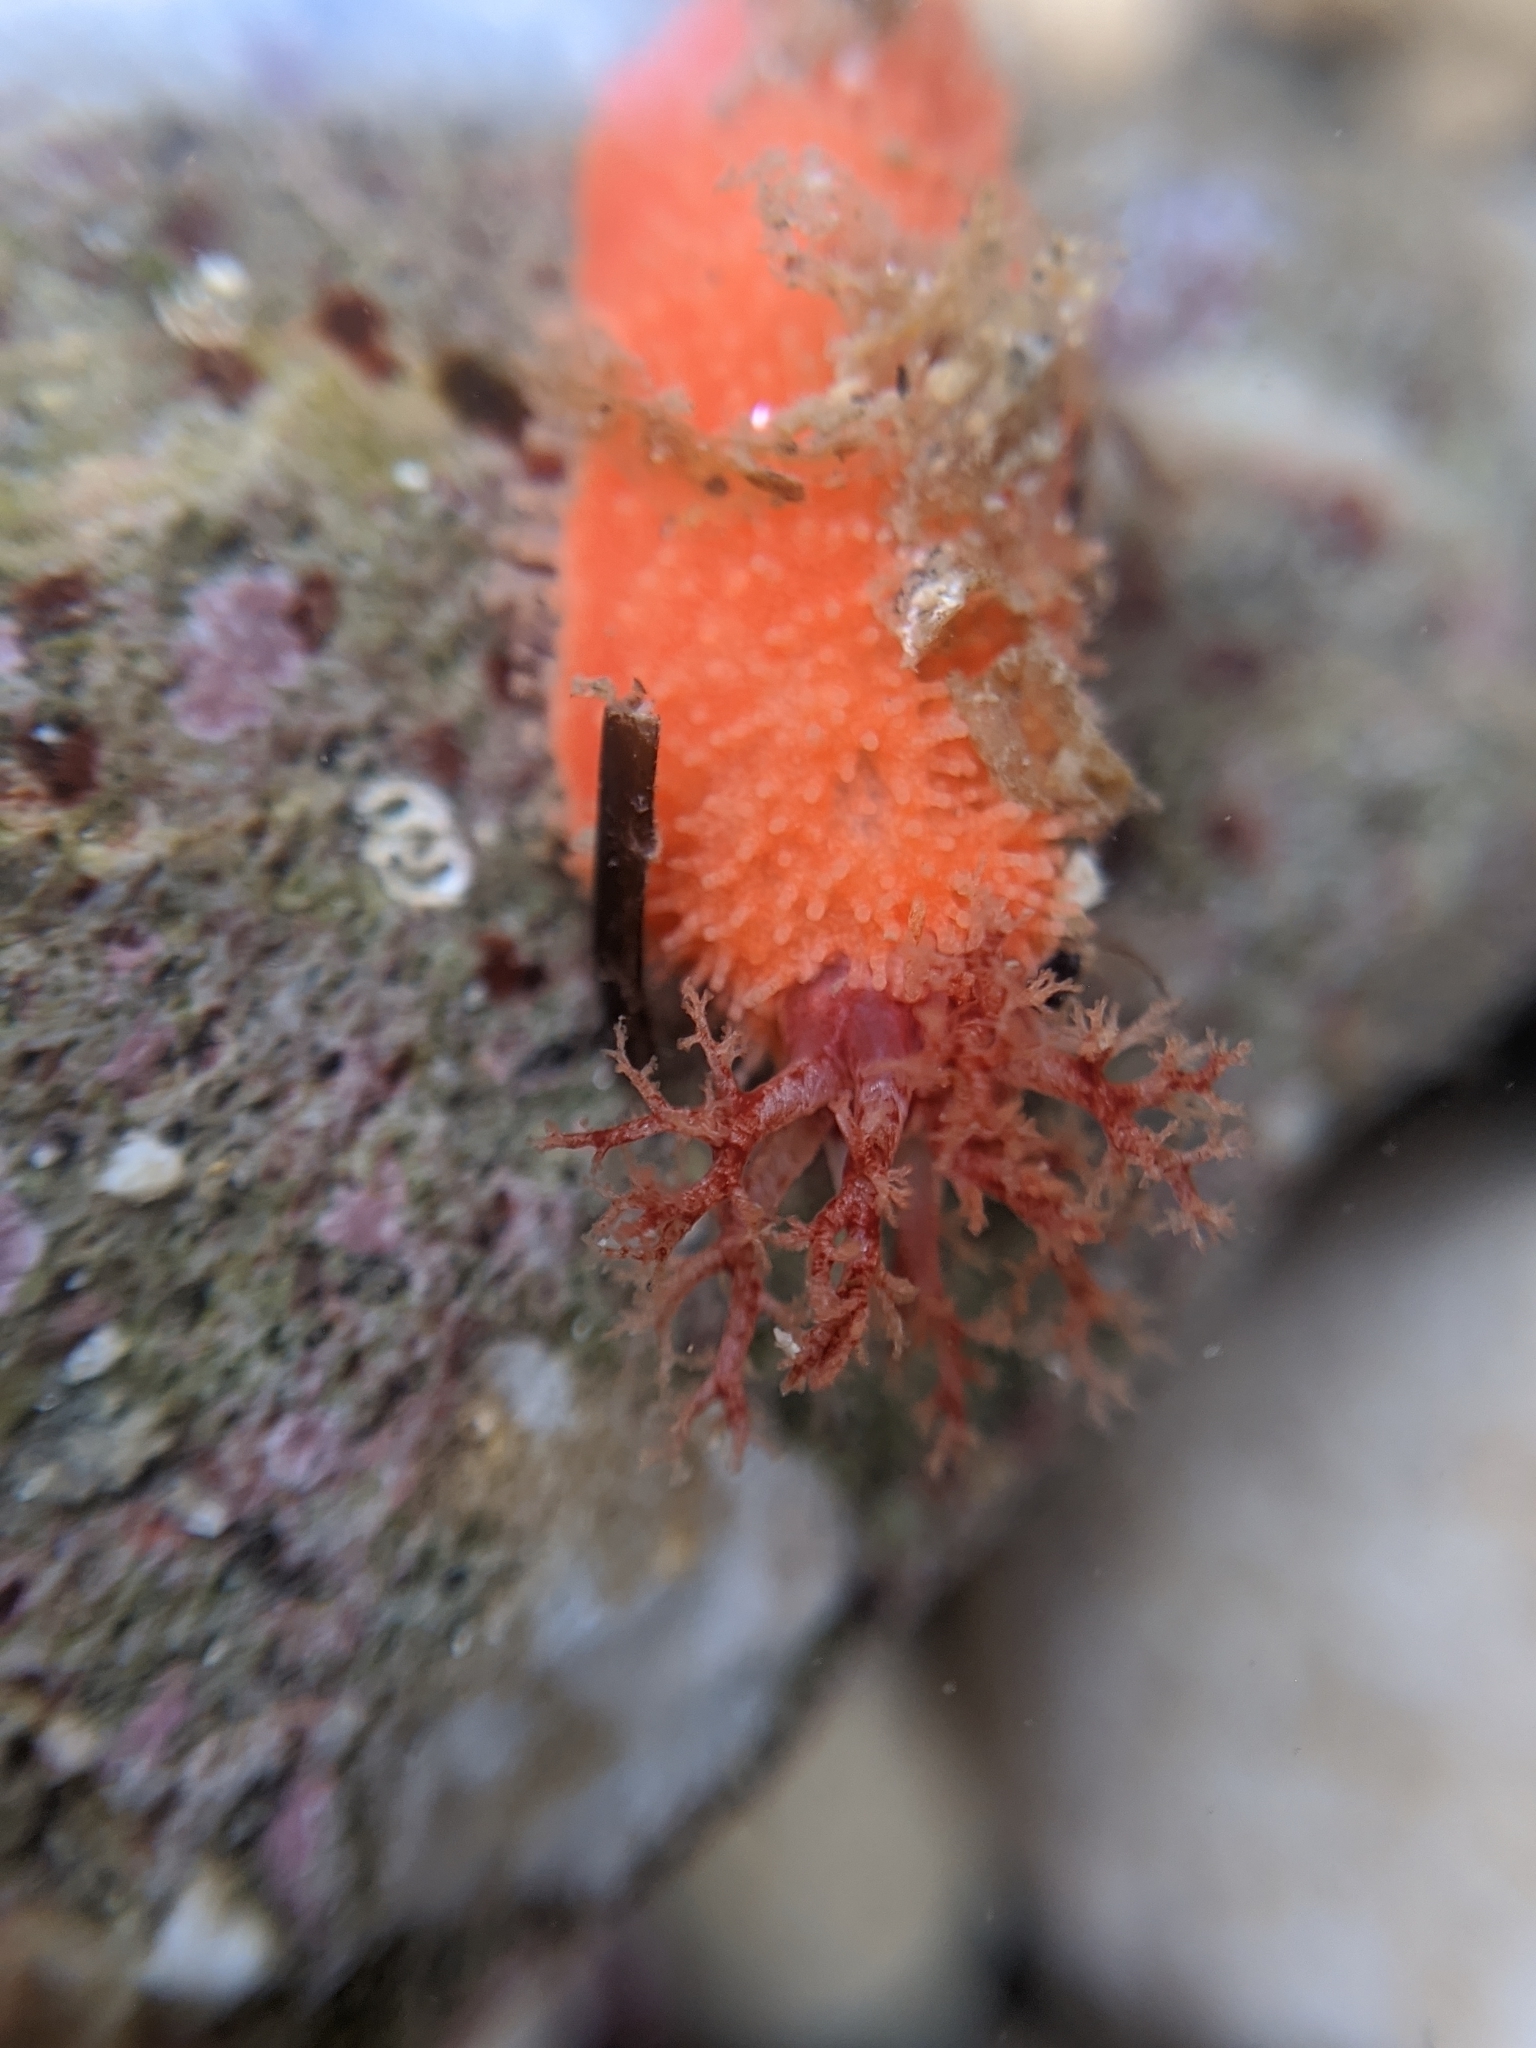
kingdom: Animalia
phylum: Echinodermata
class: Holothuroidea
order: Dendrochirotida
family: Psolidae
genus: Lissothuria
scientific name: Lissothuria nutriens
